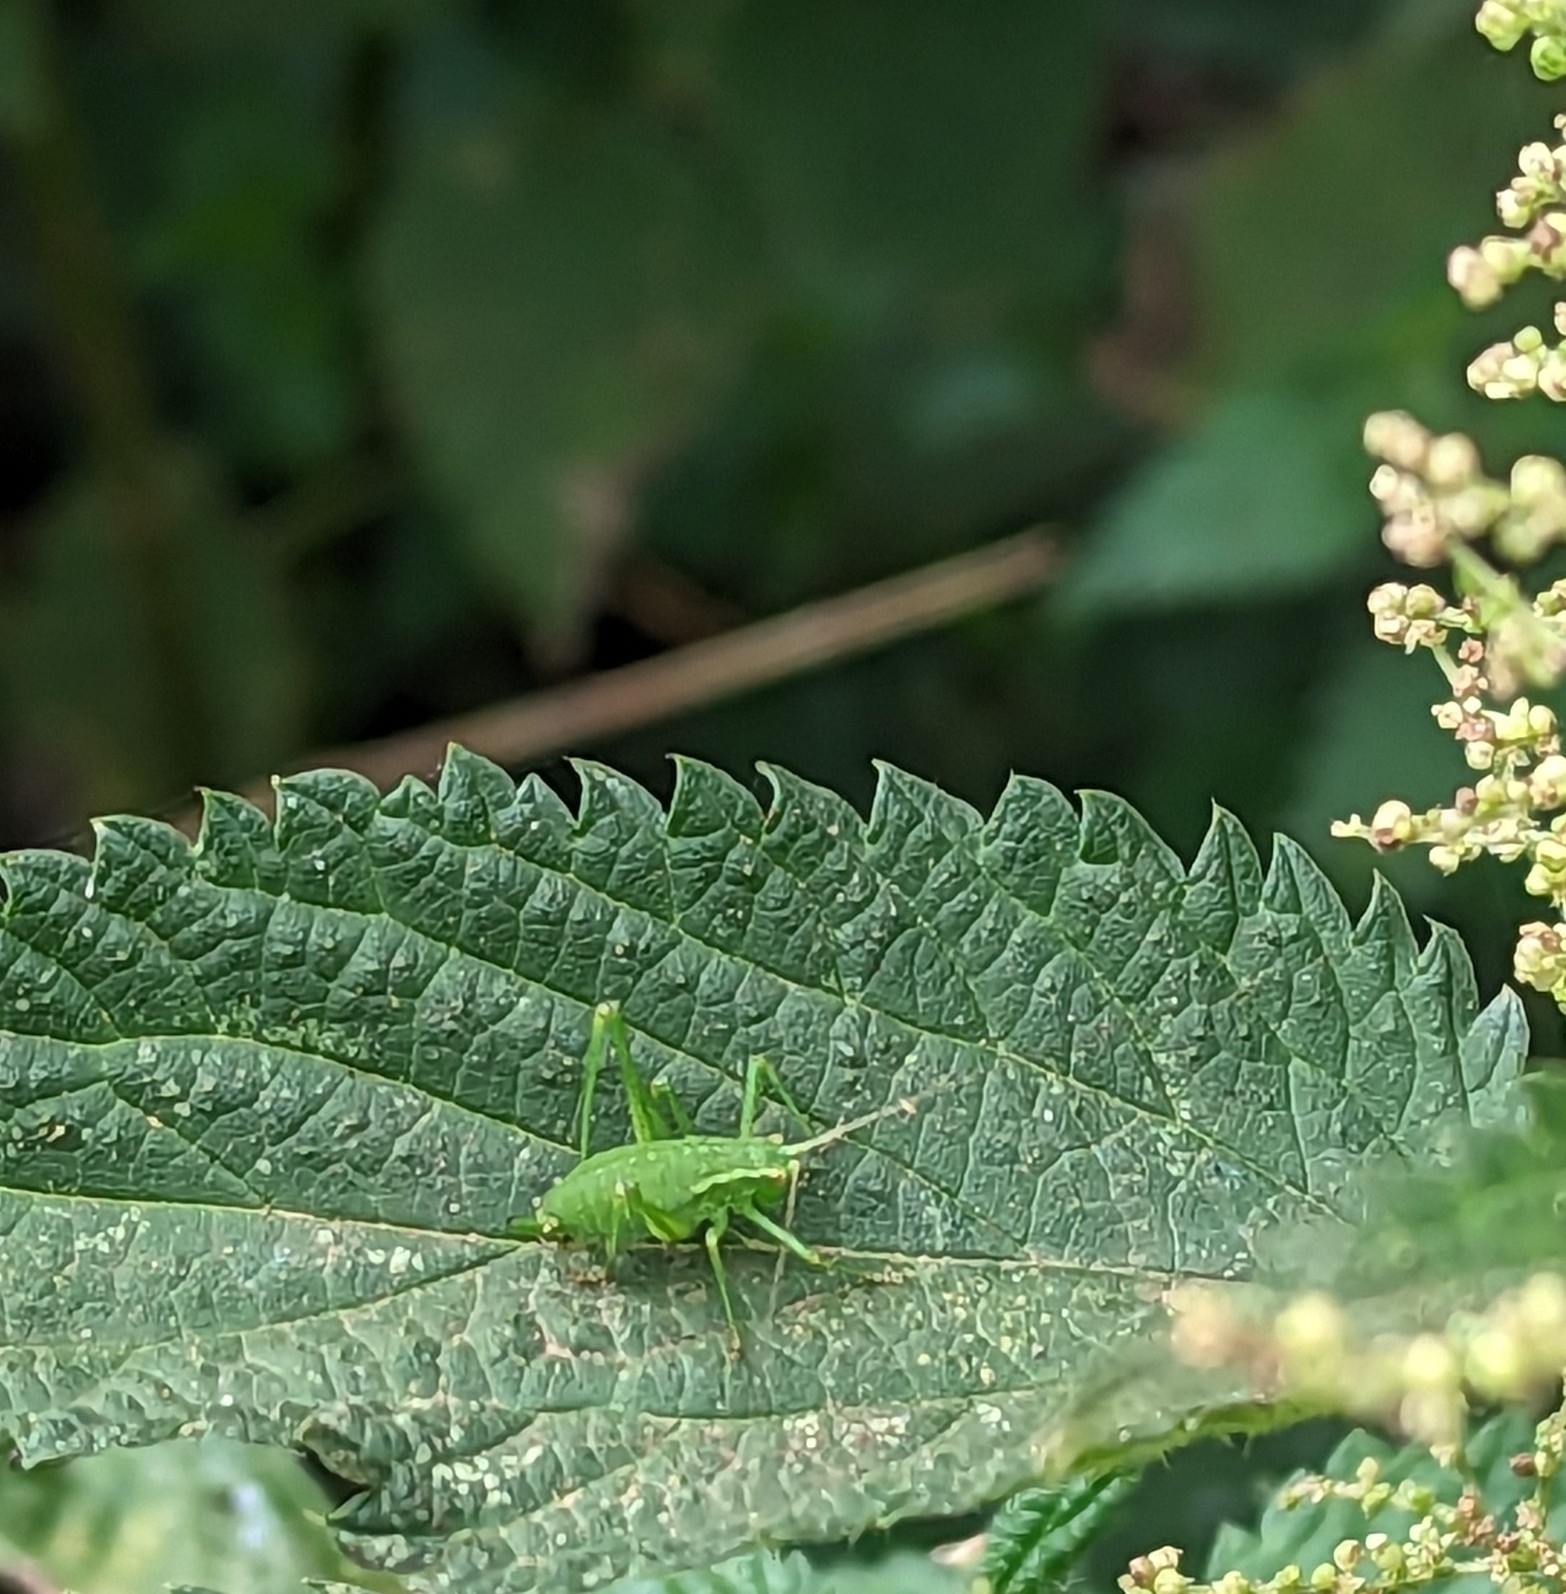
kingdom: Animalia
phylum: Arthropoda
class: Insecta
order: Orthoptera
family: Tettigoniidae
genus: Leptophyes
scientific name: Leptophyes punctatissima
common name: Speckled bush-cricket
